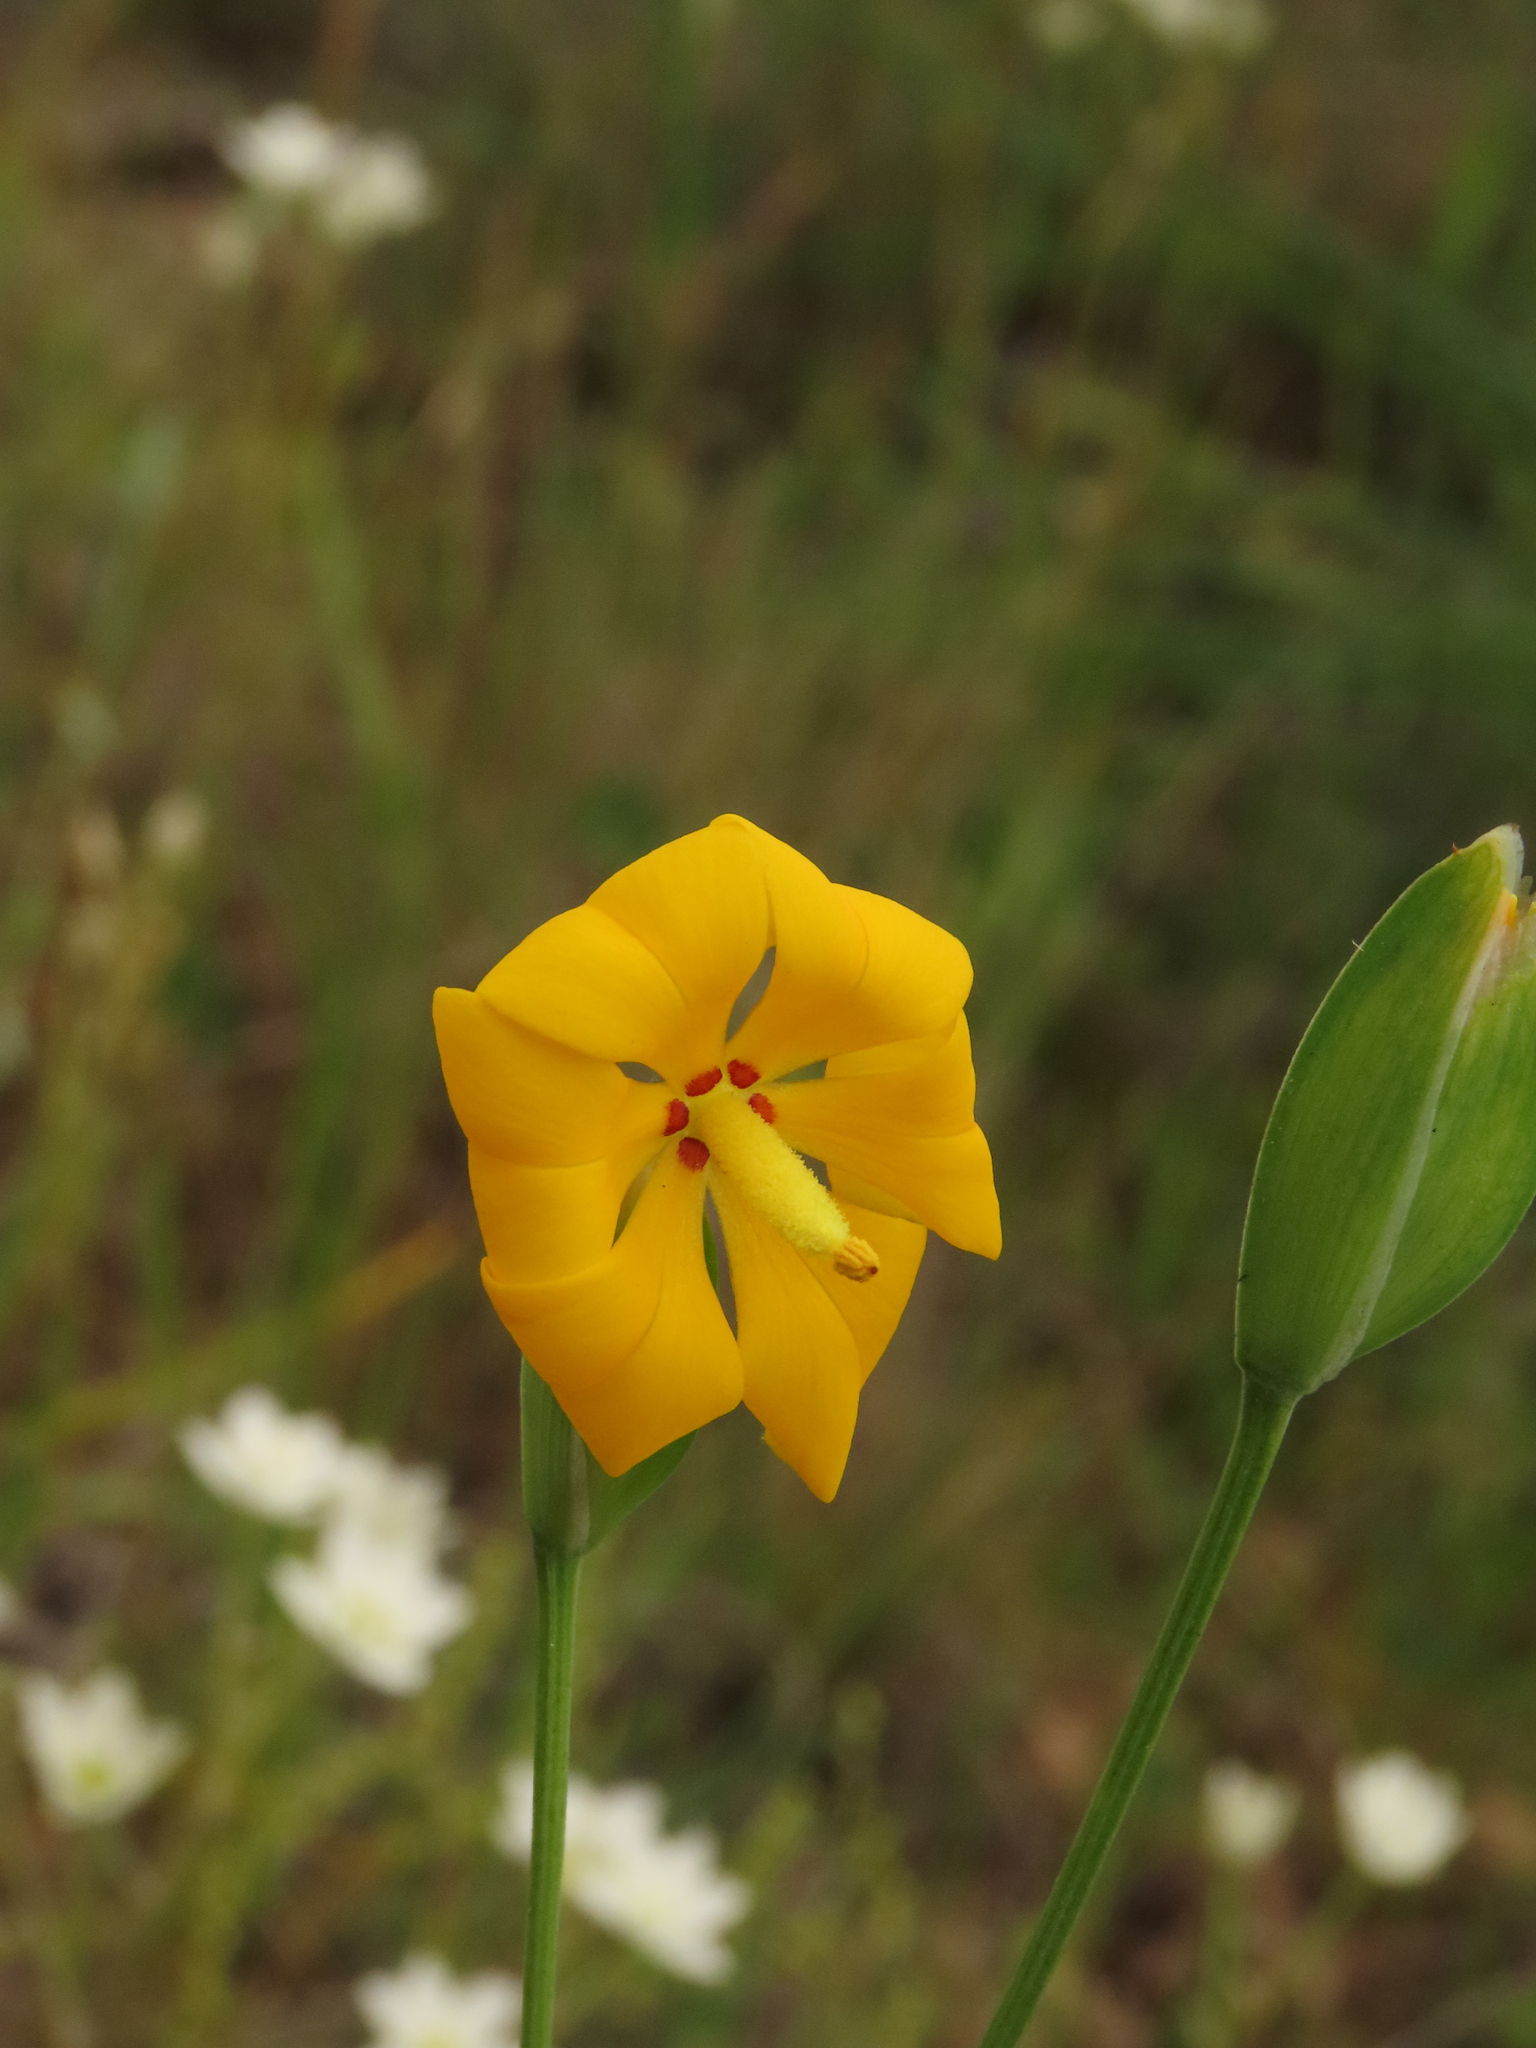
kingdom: Plantae
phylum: Tracheophyta
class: Liliopsida
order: Asparagales
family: Iridaceae
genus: Solenomelus
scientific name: Solenomelus pedunculatus
